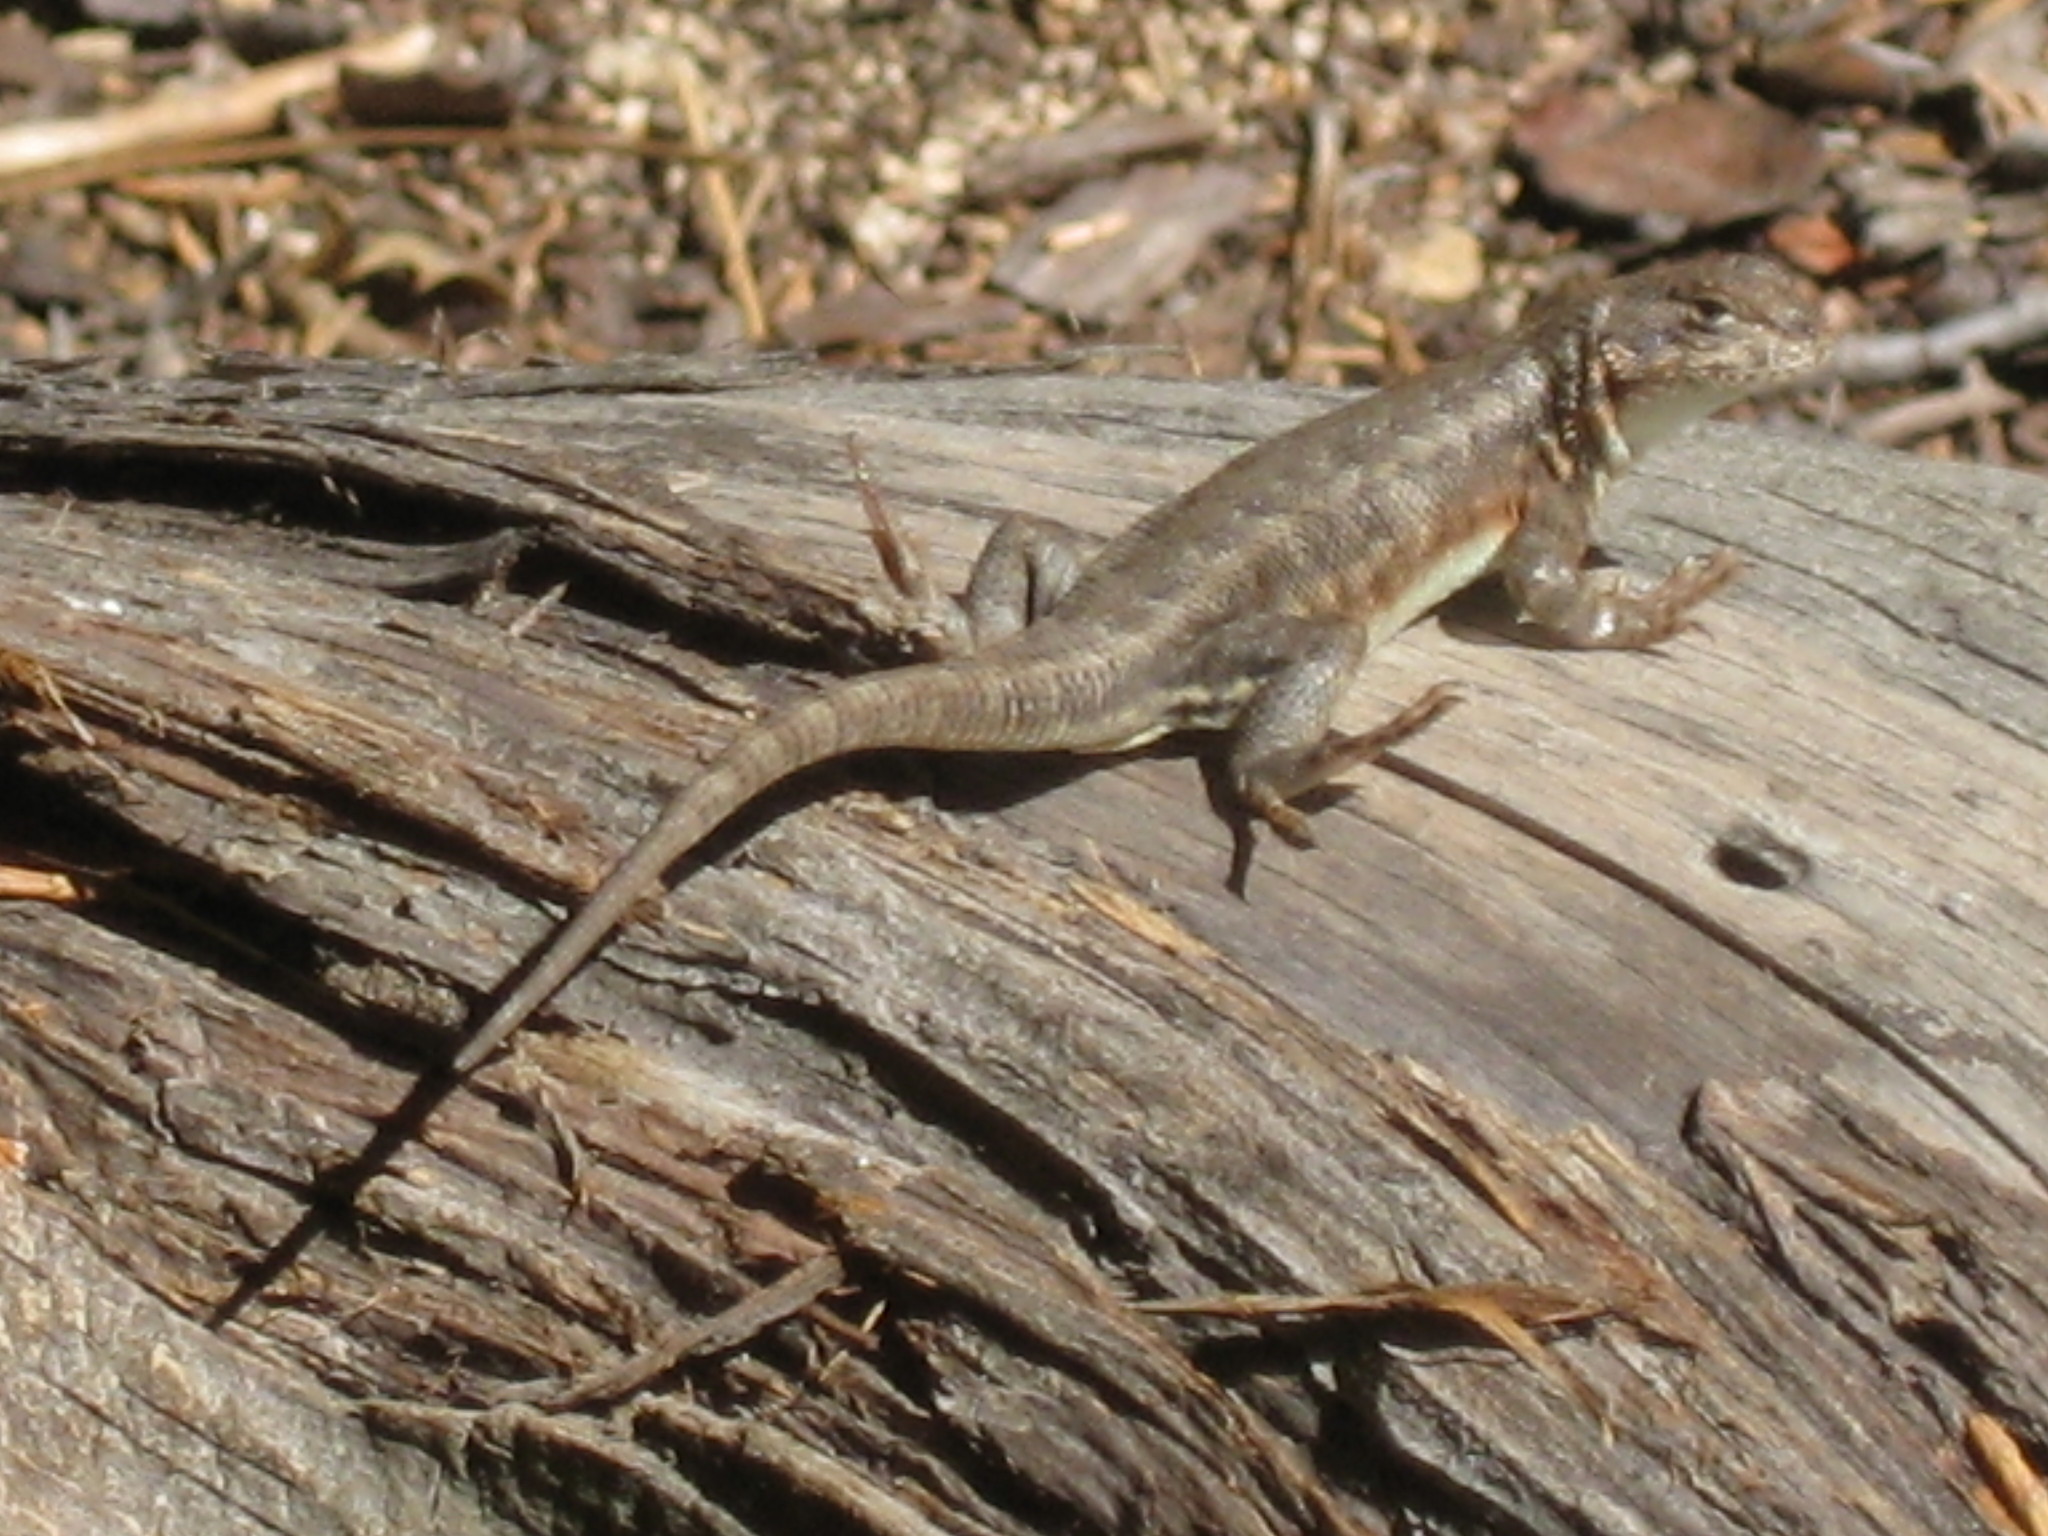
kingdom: Animalia
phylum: Chordata
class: Squamata
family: Phrynosomatidae
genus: Sceloporus
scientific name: Sceloporus graciosus
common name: Sagebrush lizard
